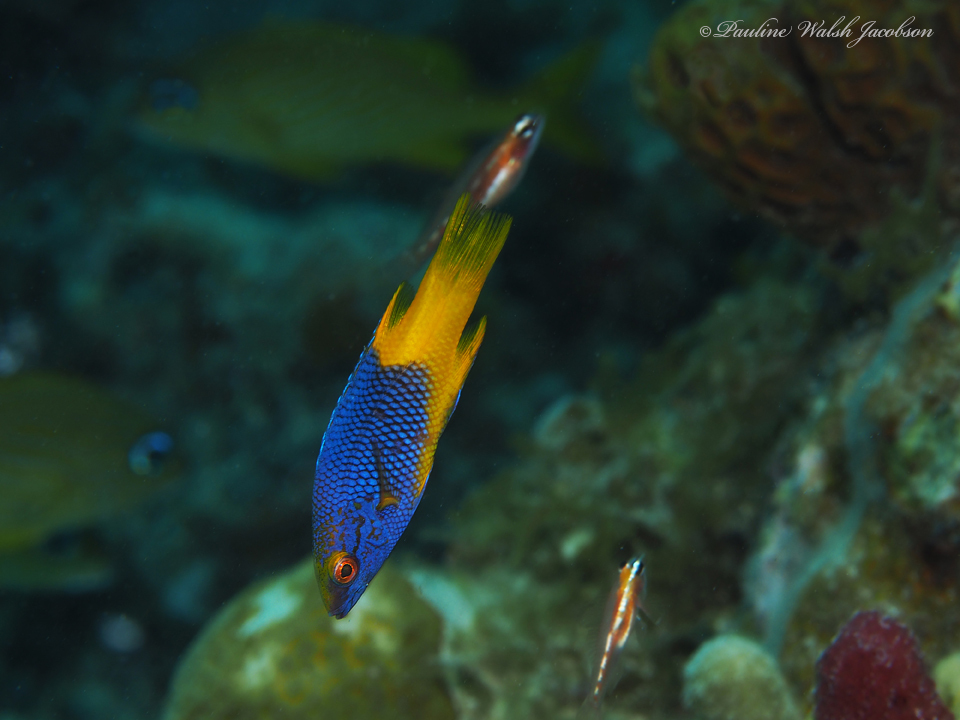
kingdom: Animalia
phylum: Chordata
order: Perciformes
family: Labridae
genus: Bodianus
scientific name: Bodianus rufus
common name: Spanish hogfish
